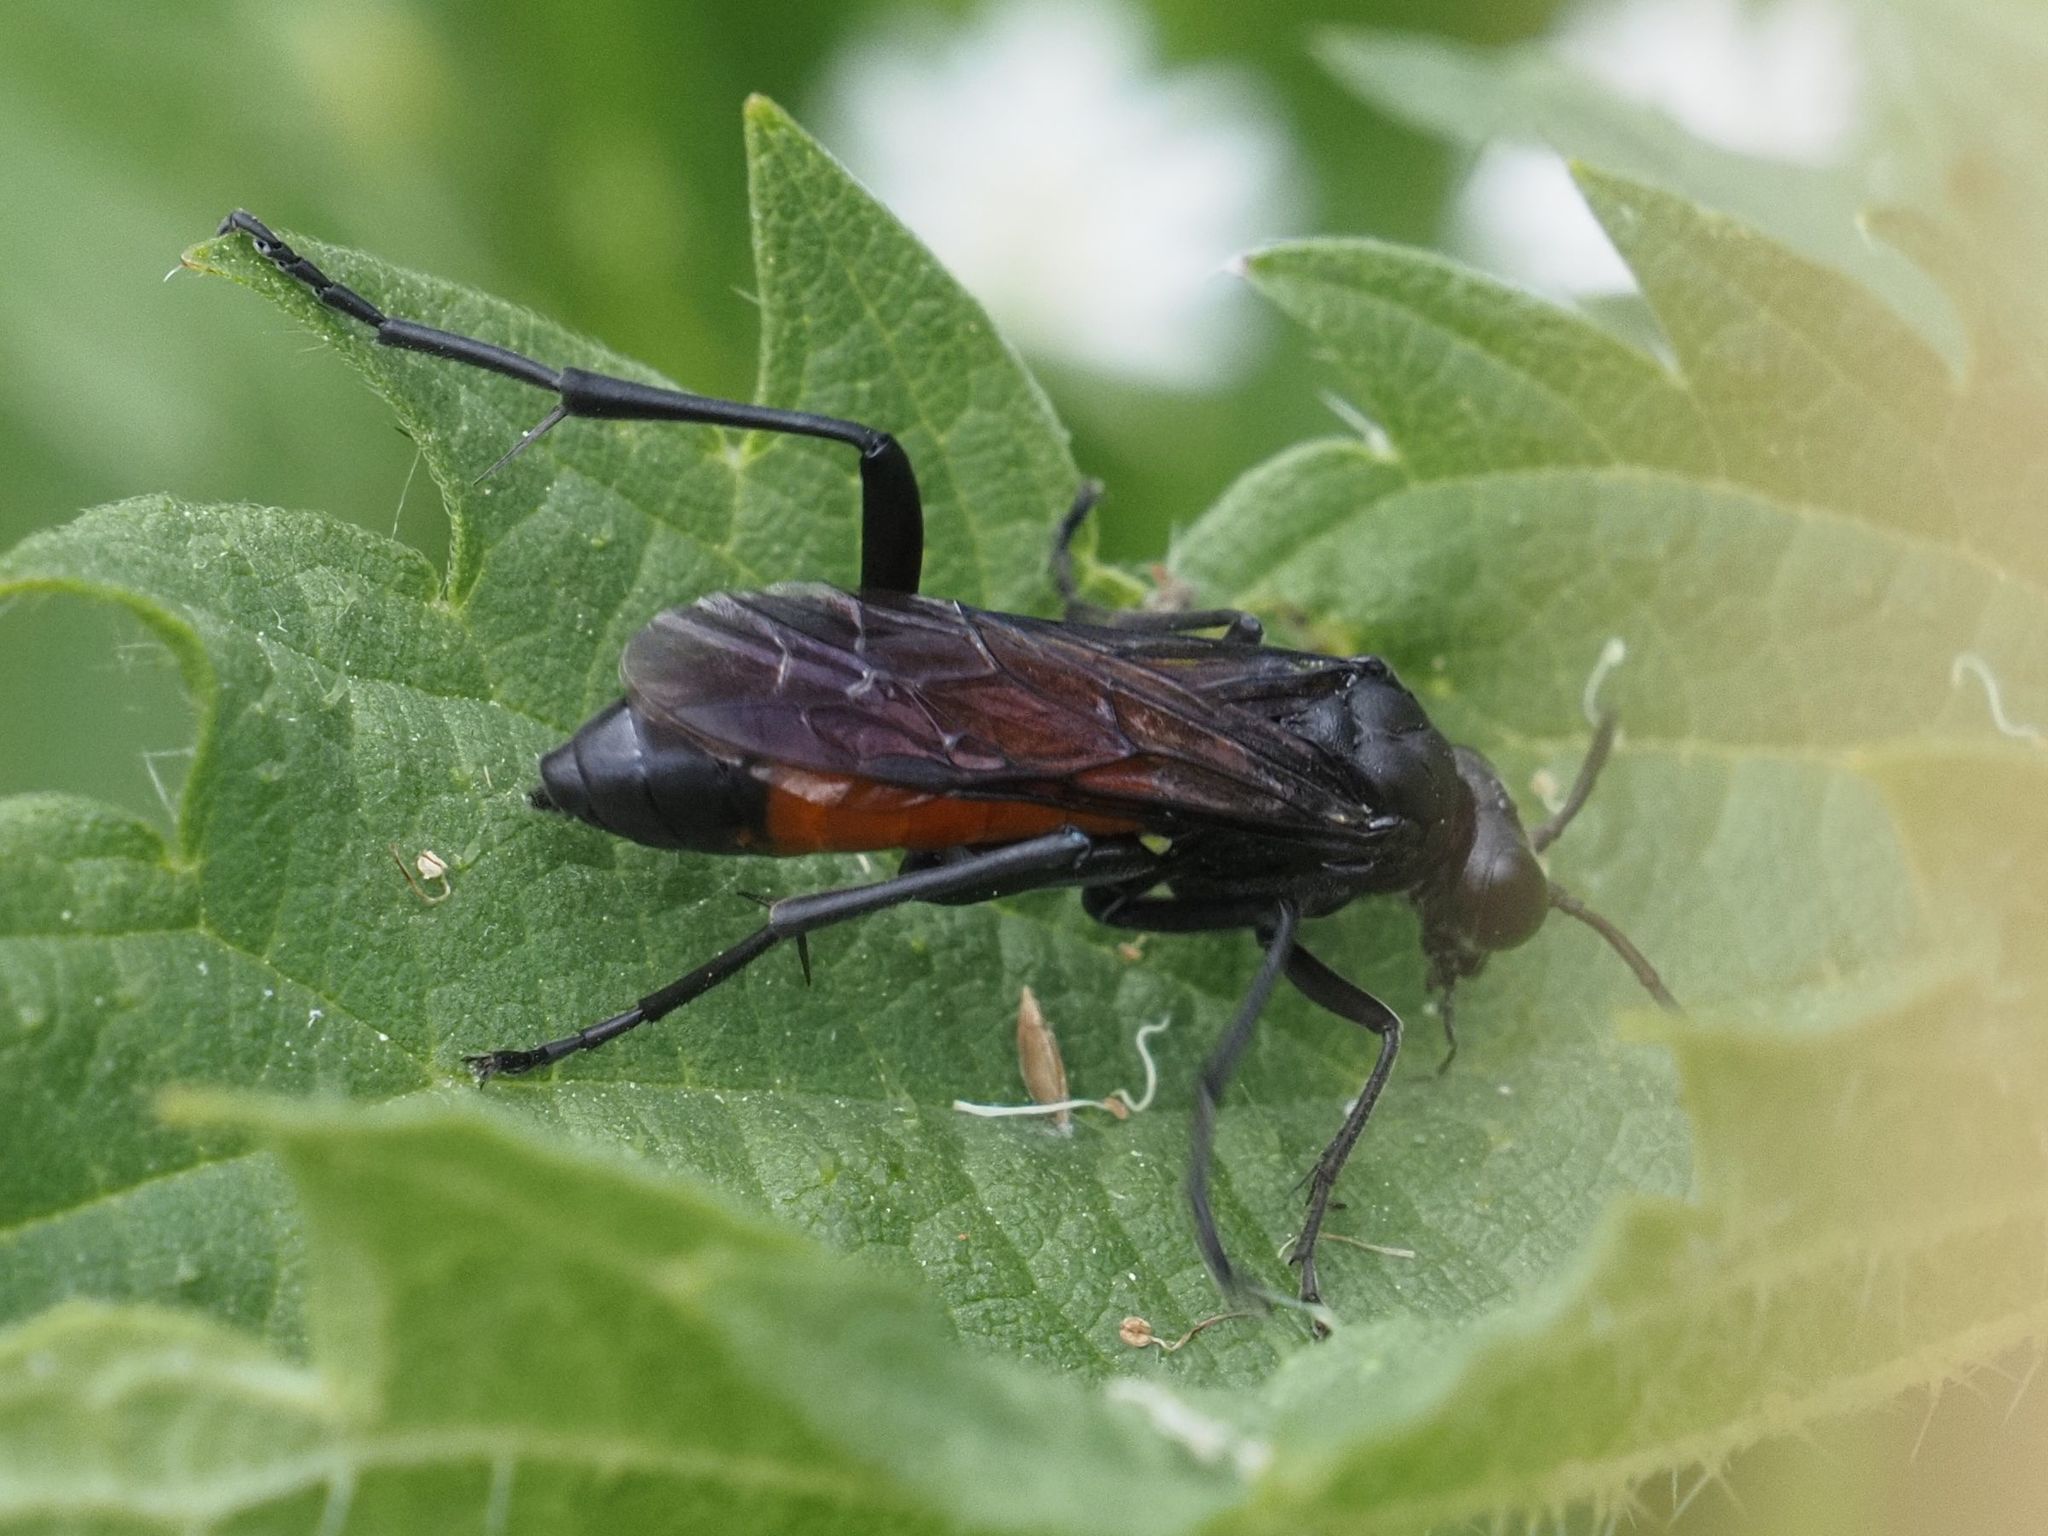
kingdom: Animalia
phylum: Arthropoda
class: Insecta
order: Hymenoptera
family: Tenthredinidae
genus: Macrophya
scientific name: Macrophya annulata
